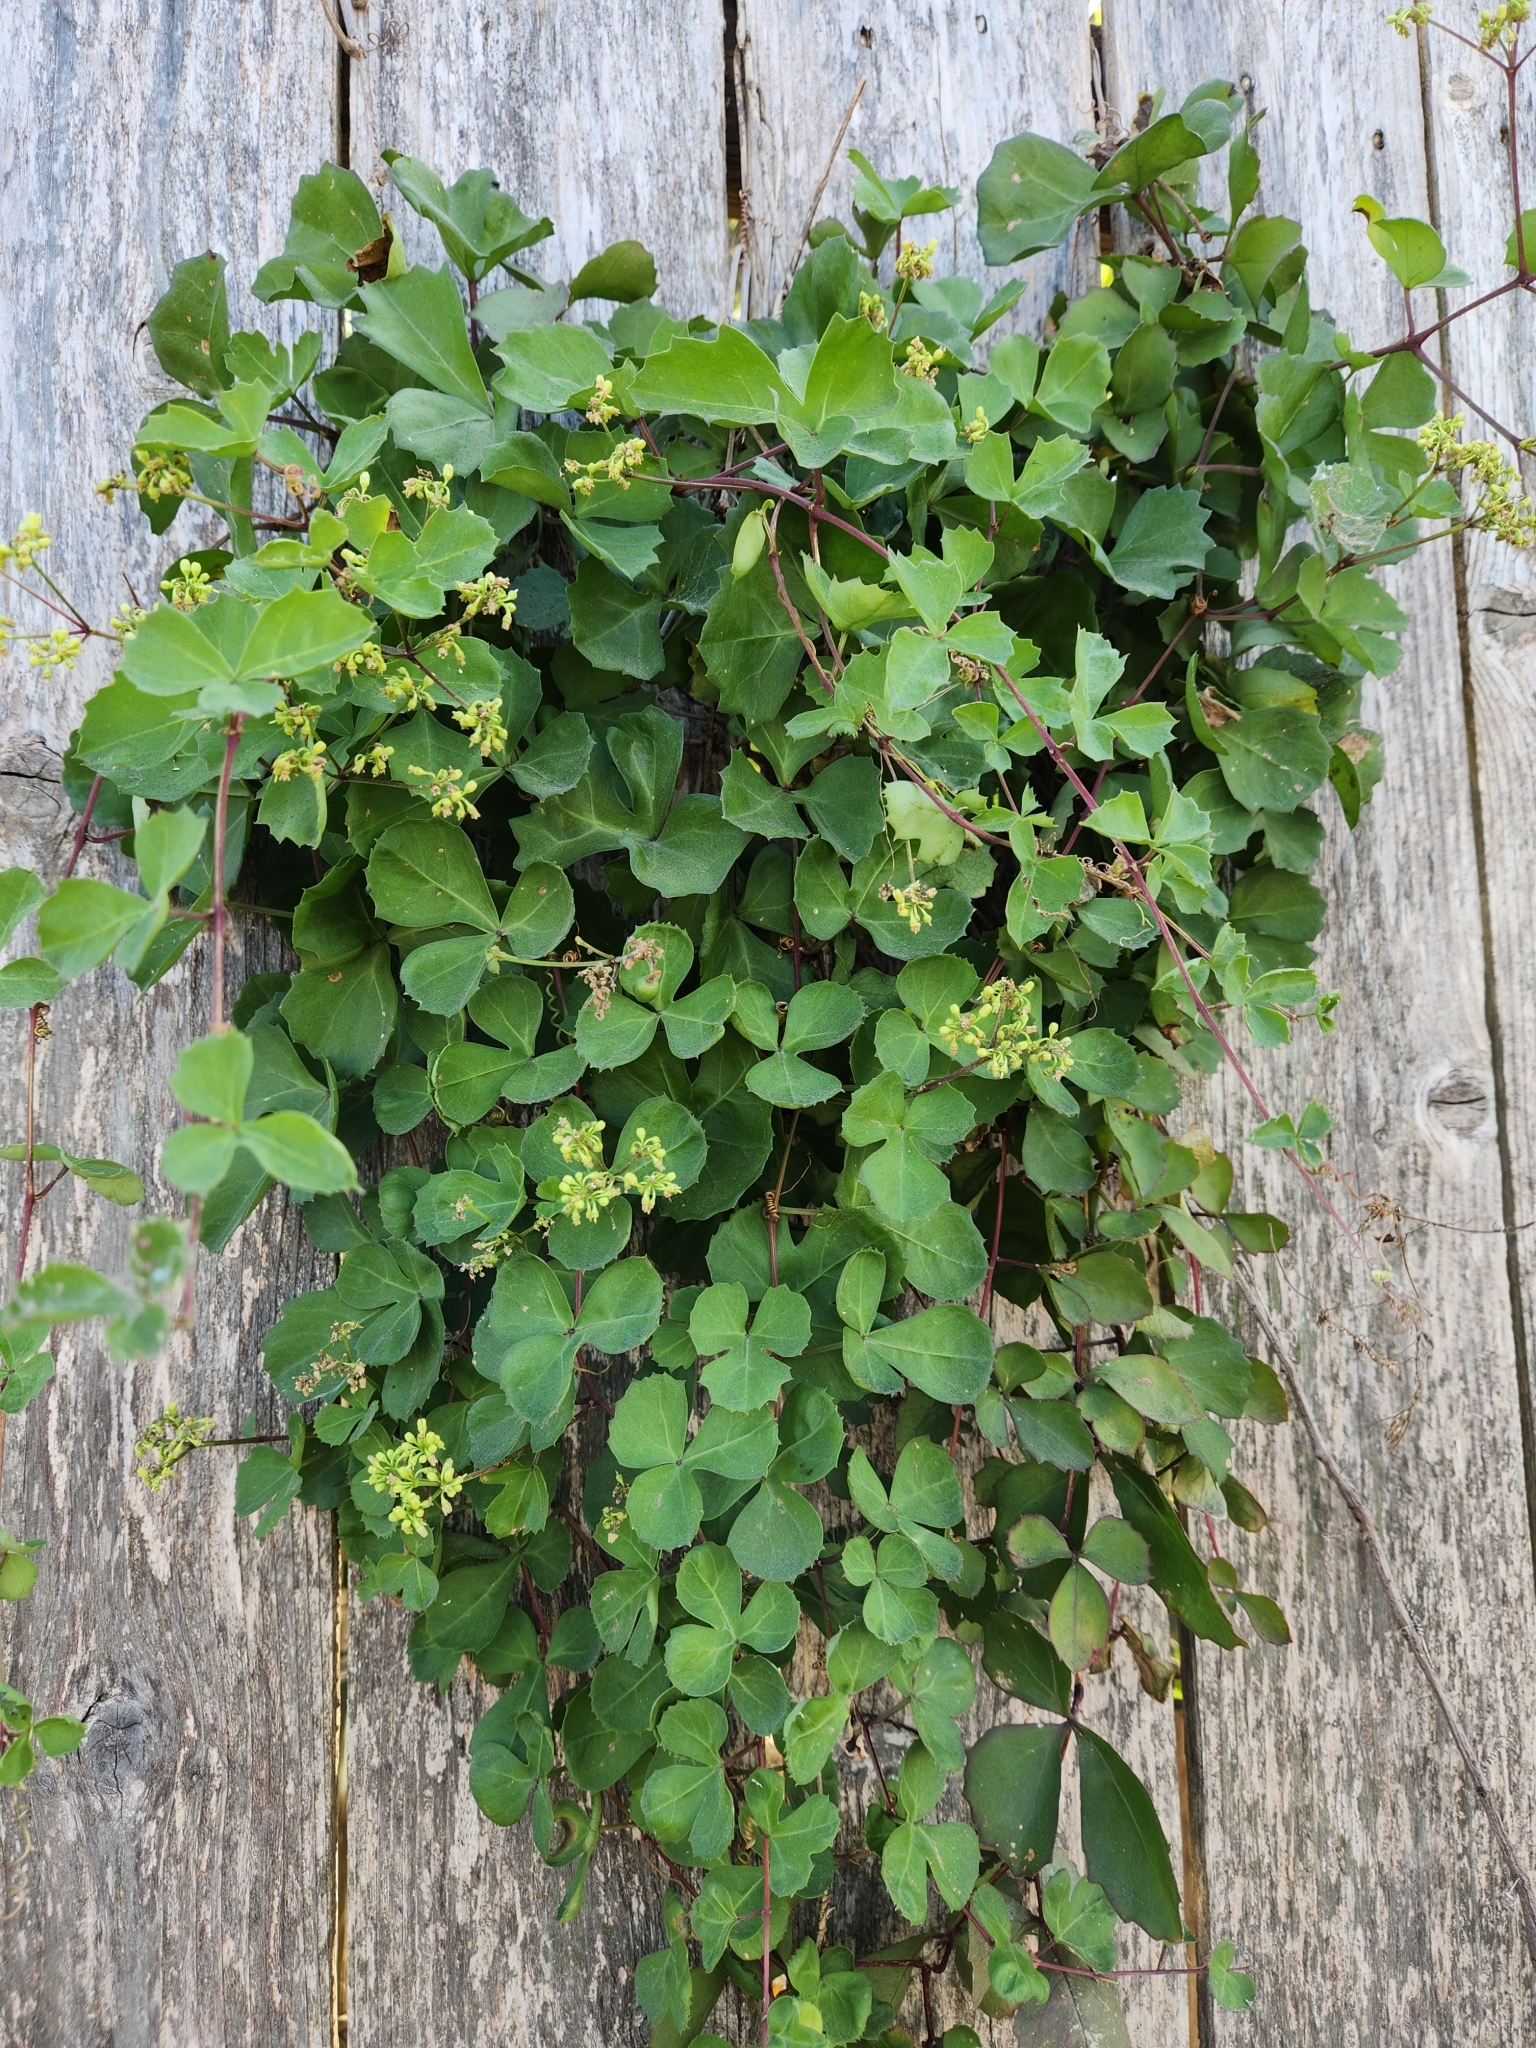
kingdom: Plantae
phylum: Tracheophyta
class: Magnoliopsida
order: Vitales
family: Vitaceae
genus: Cissus
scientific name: Cissus trifoliata
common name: Vine-sorrel
